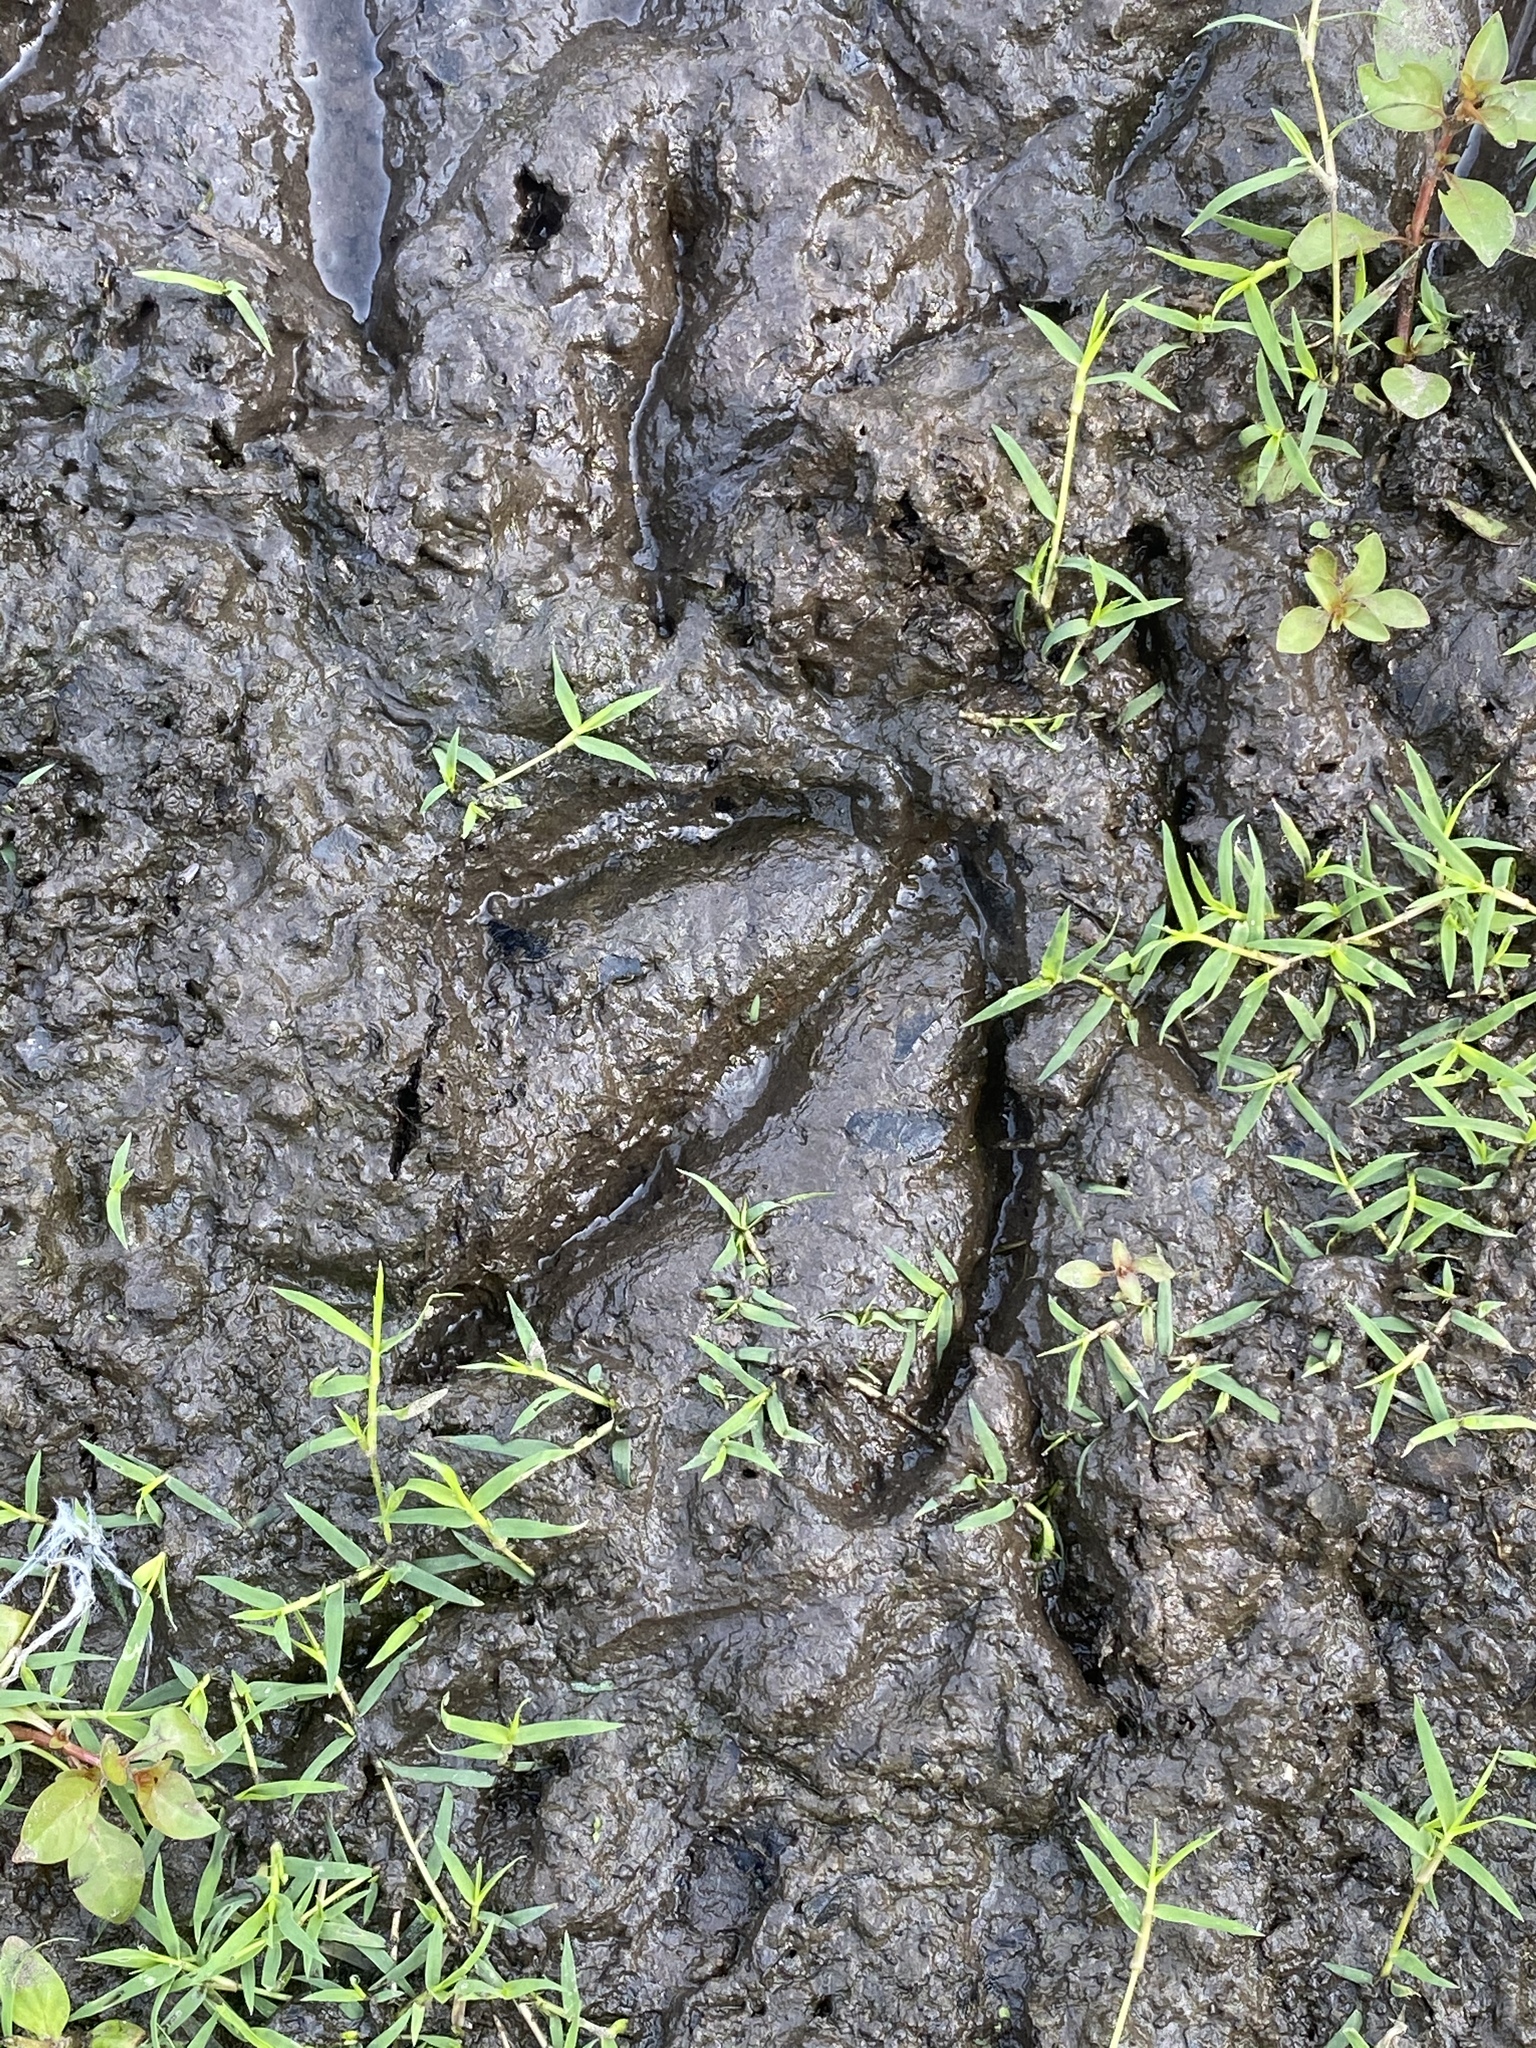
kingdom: Animalia
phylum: Chordata
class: Mammalia
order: Artiodactyla
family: Cervidae
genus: Odocoileus
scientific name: Odocoileus virginianus
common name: White-tailed deer
